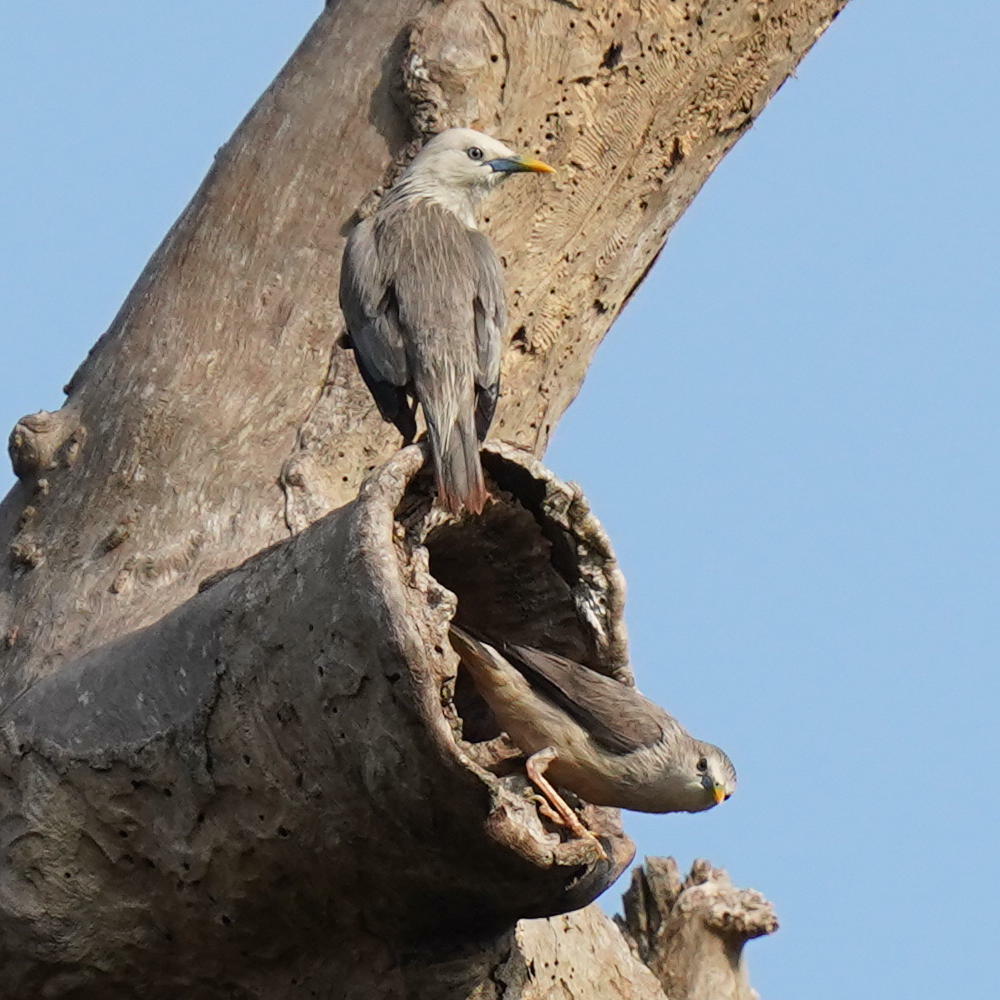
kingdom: Animalia
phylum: Chordata
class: Aves
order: Passeriformes
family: Sturnidae
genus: Sturnia
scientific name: Sturnia blythii
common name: Malabar starling
